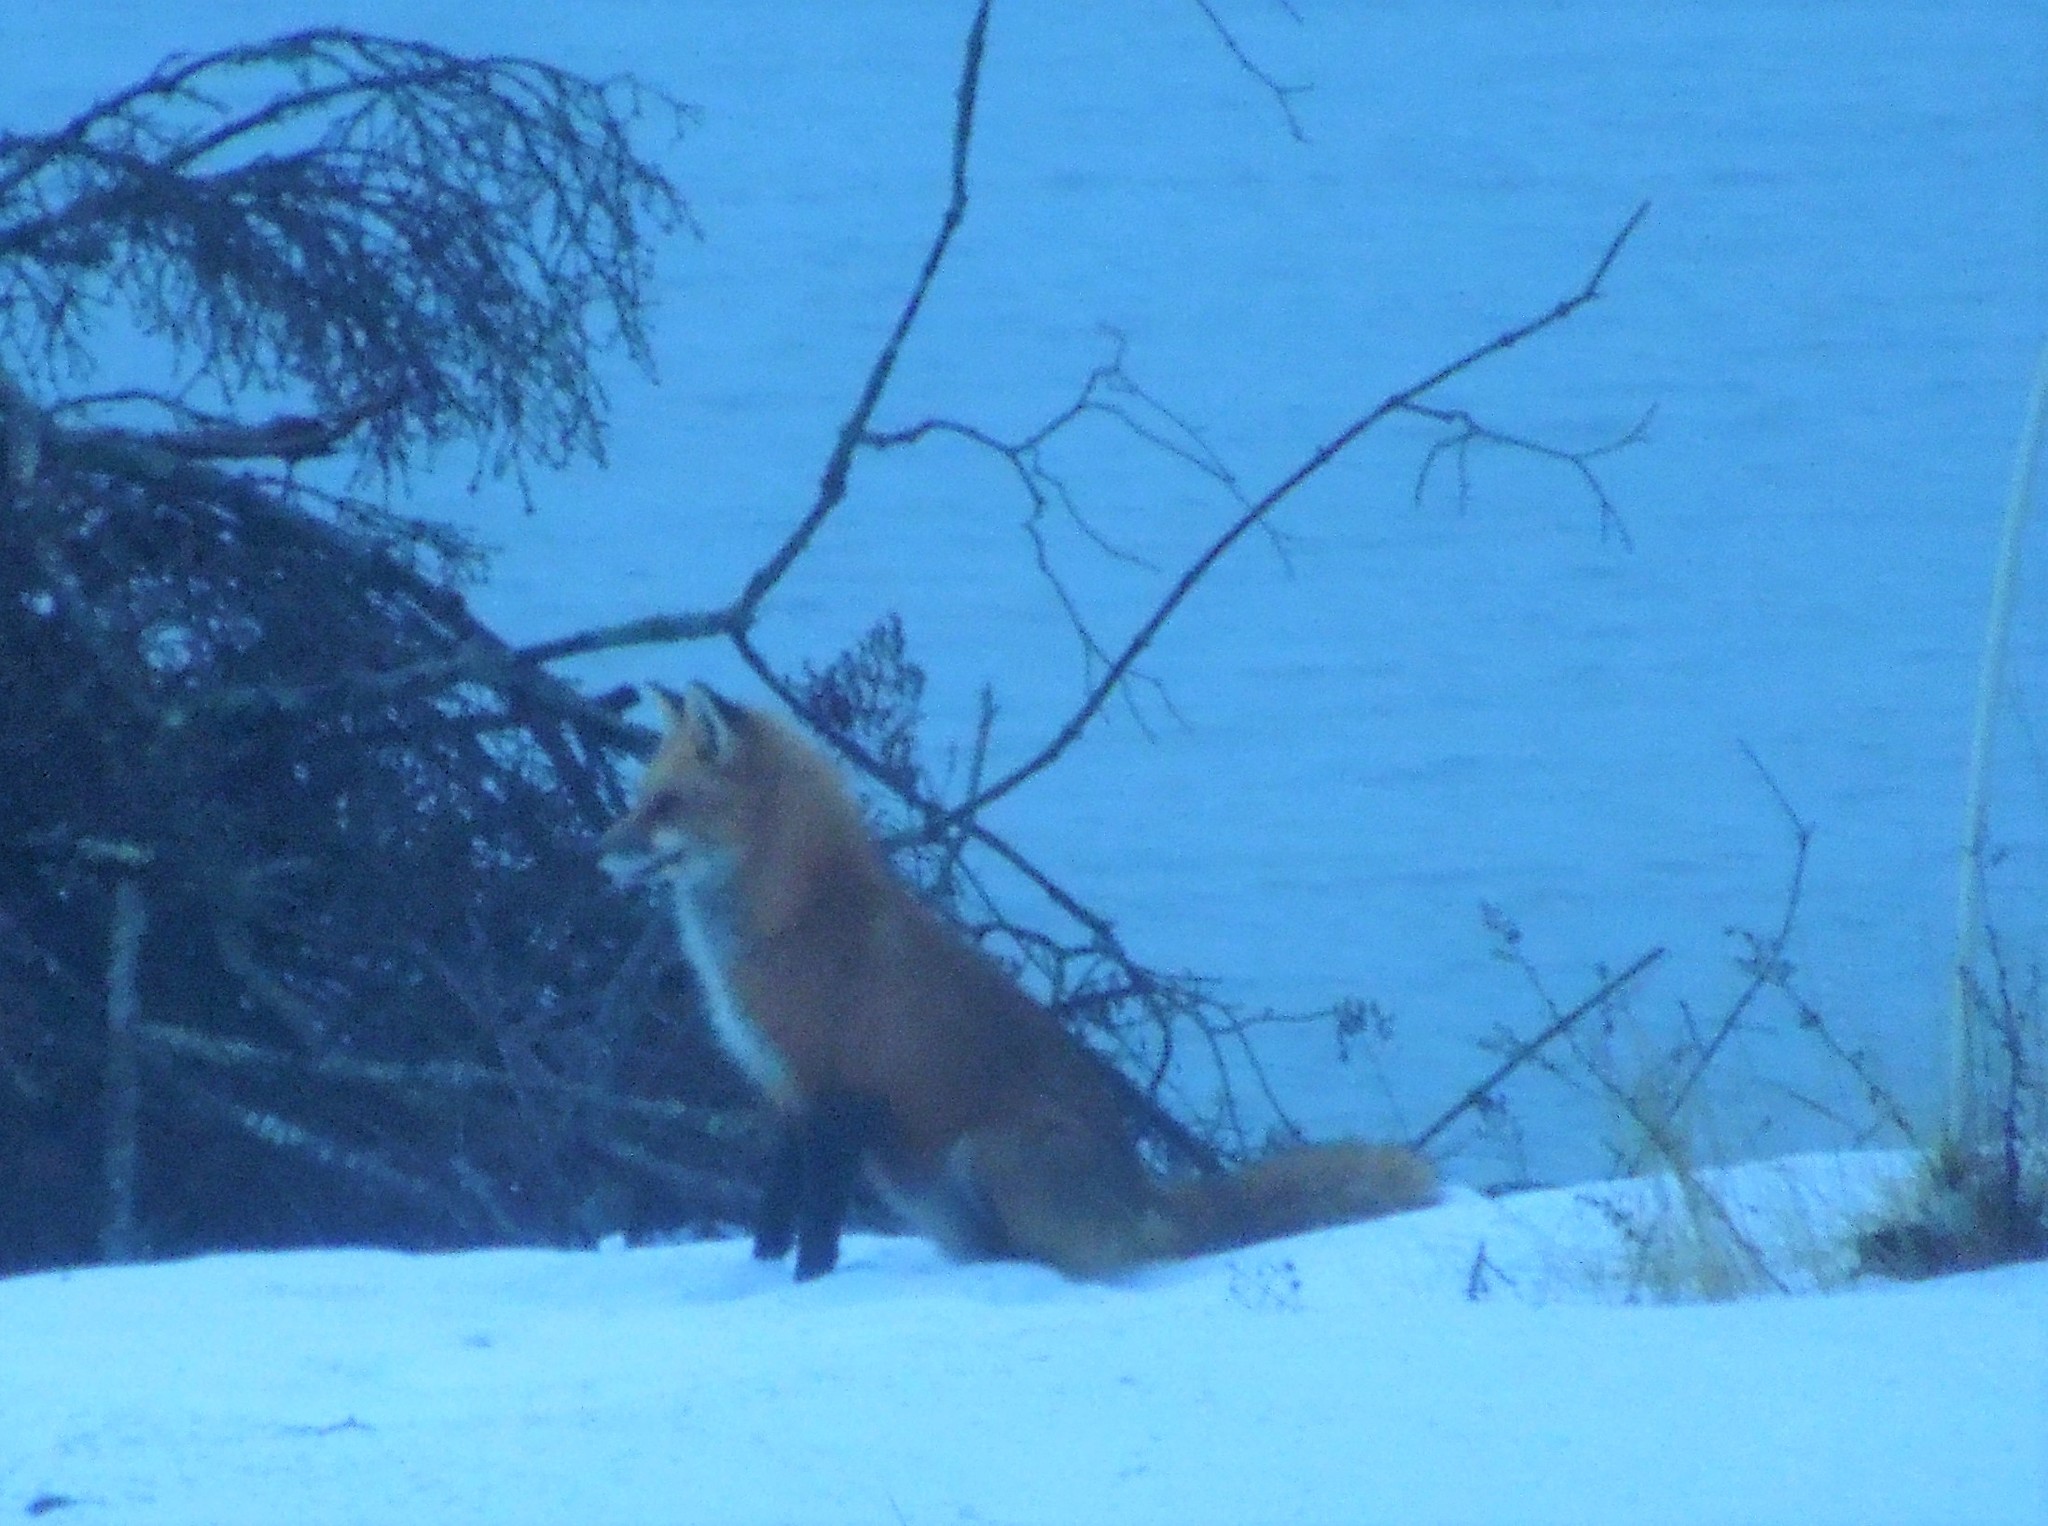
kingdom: Animalia
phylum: Chordata
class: Mammalia
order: Carnivora
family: Canidae
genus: Vulpes
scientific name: Vulpes vulpes
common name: Red fox
